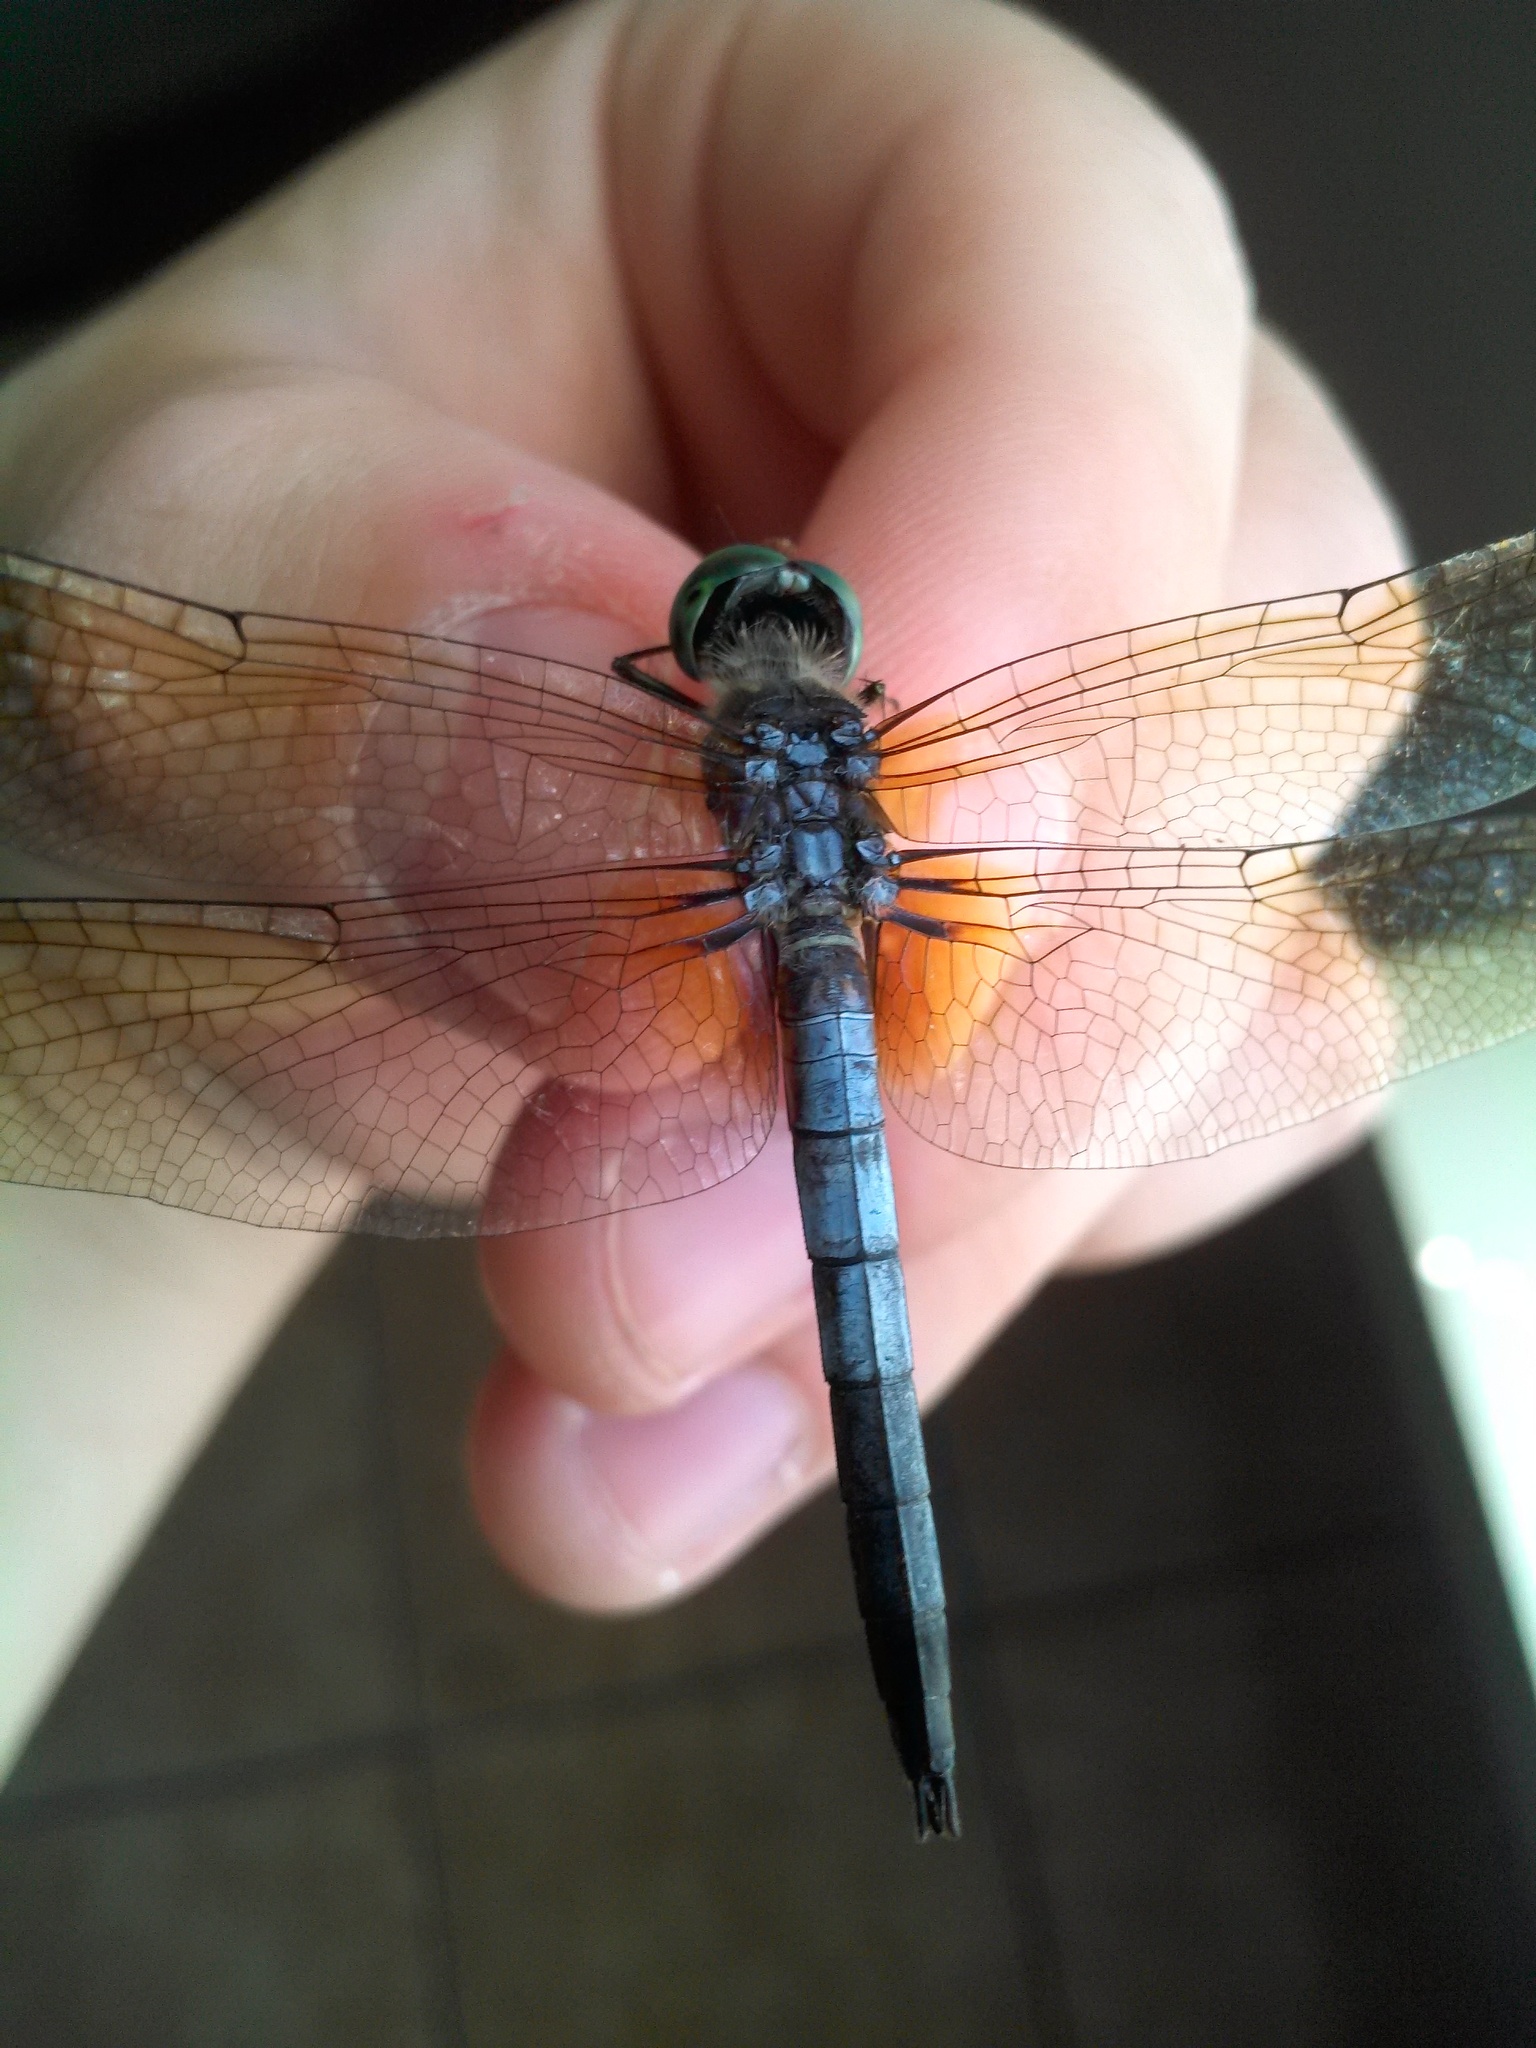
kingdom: Animalia
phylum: Arthropoda
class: Insecta
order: Odonata
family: Libellulidae
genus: Pachydiplax
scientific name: Pachydiplax longipennis
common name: Blue dasher
